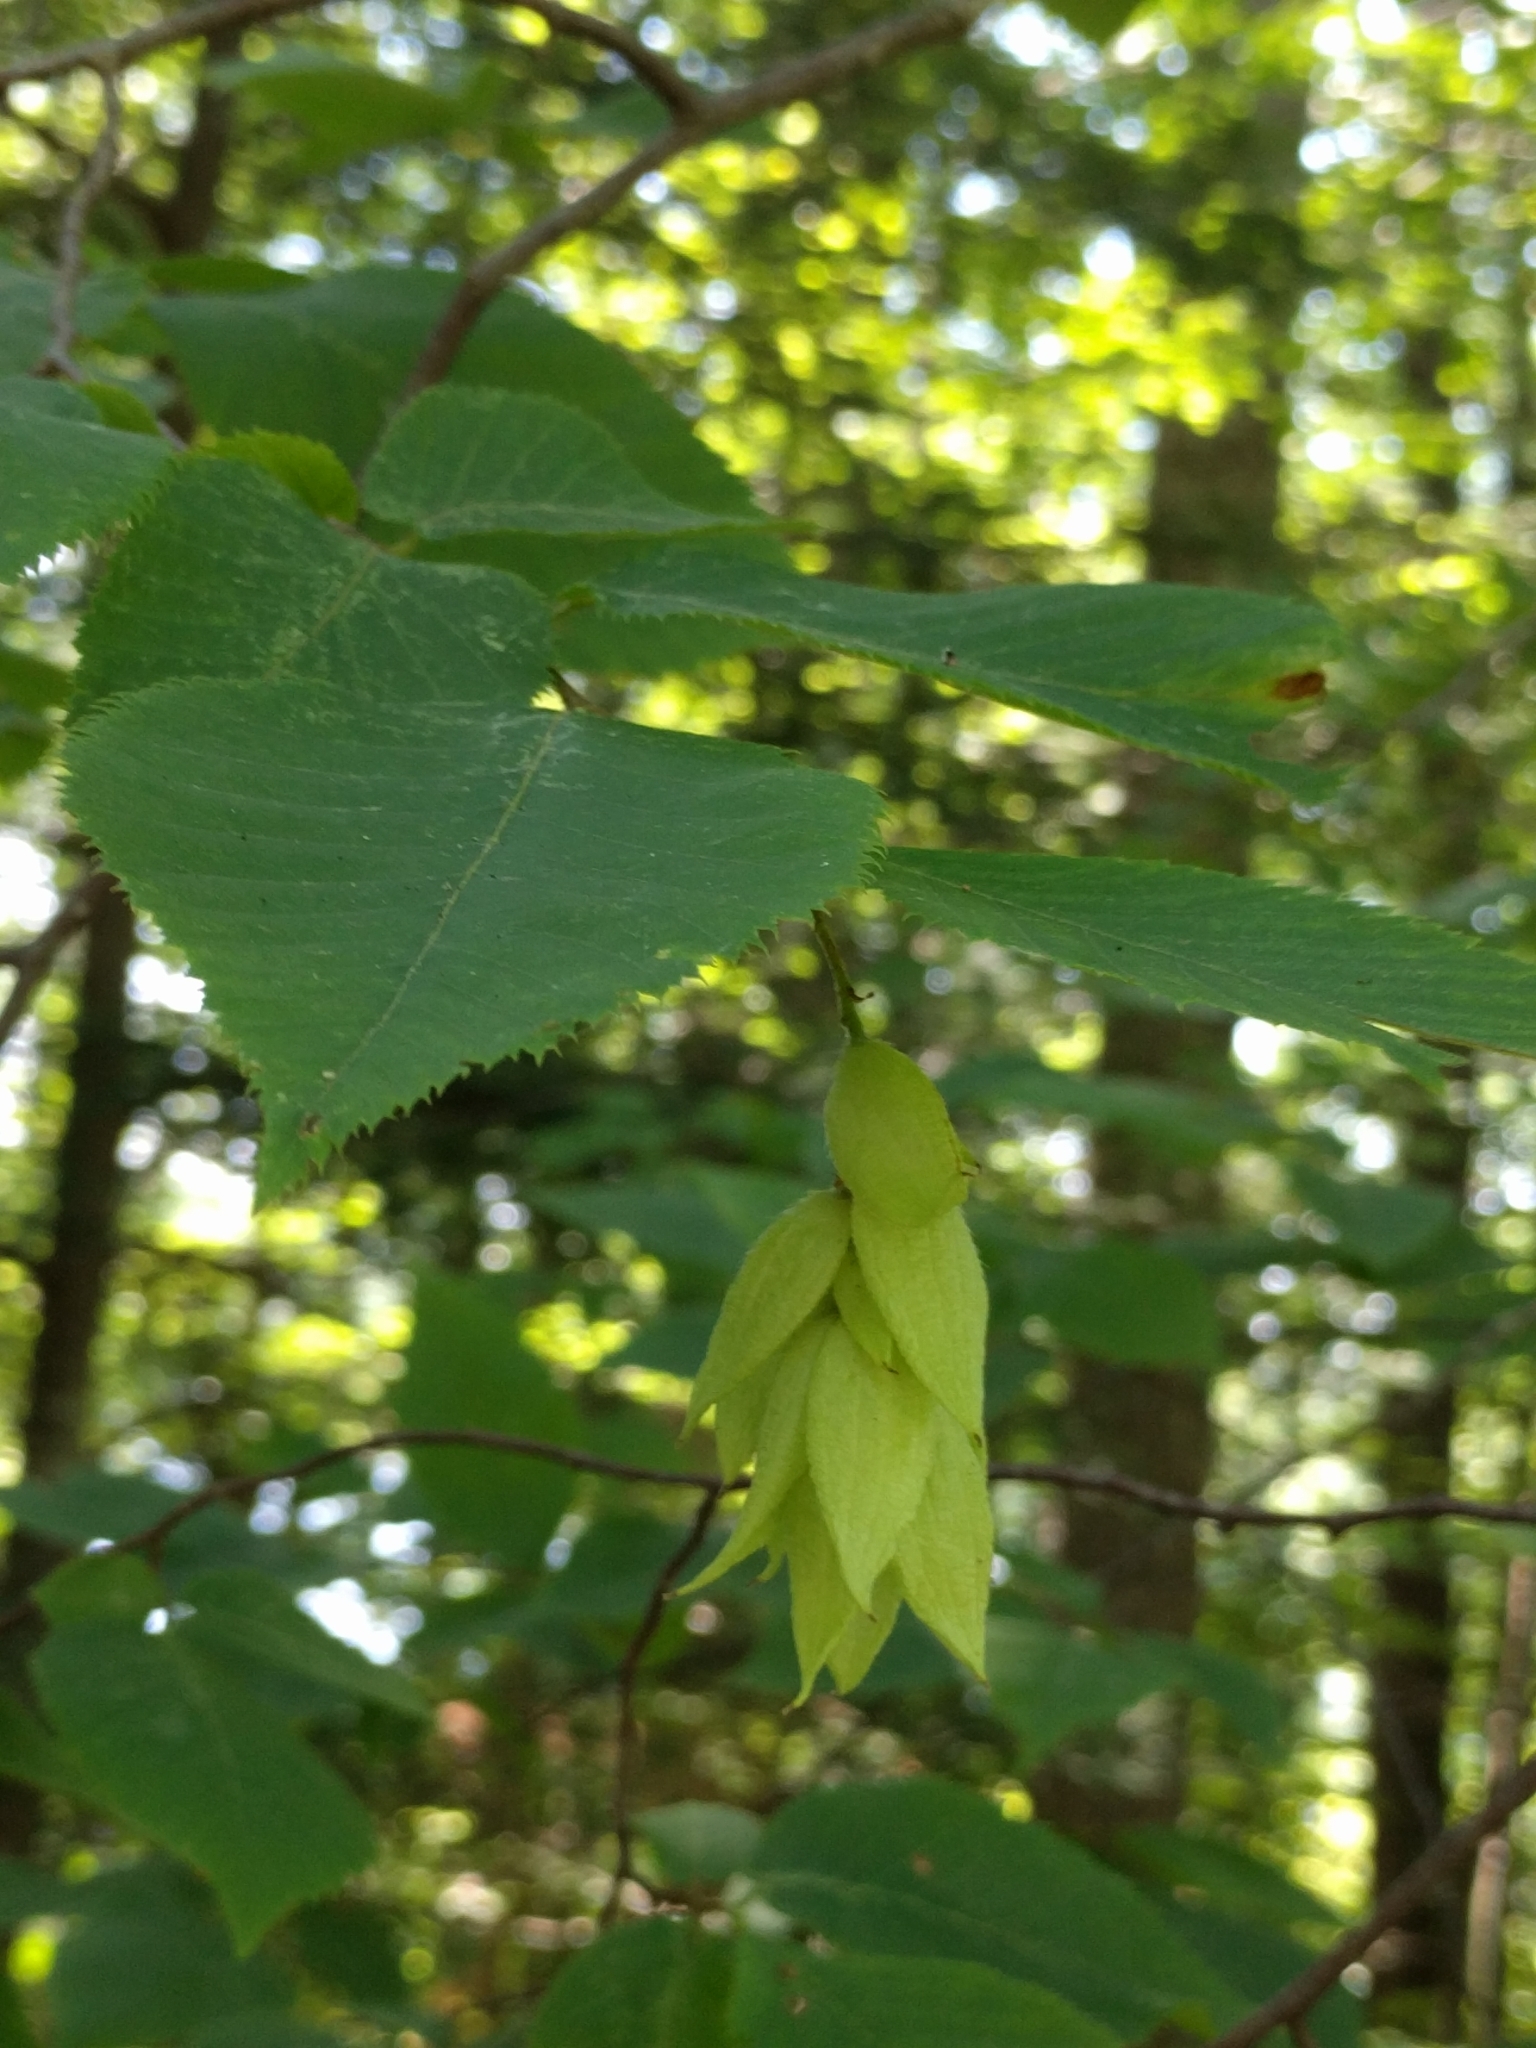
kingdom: Plantae
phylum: Tracheophyta
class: Magnoliopsida
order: Fagales
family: Betulaceae
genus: Ostrya
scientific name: Ostrya virginiana
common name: Ironwood
